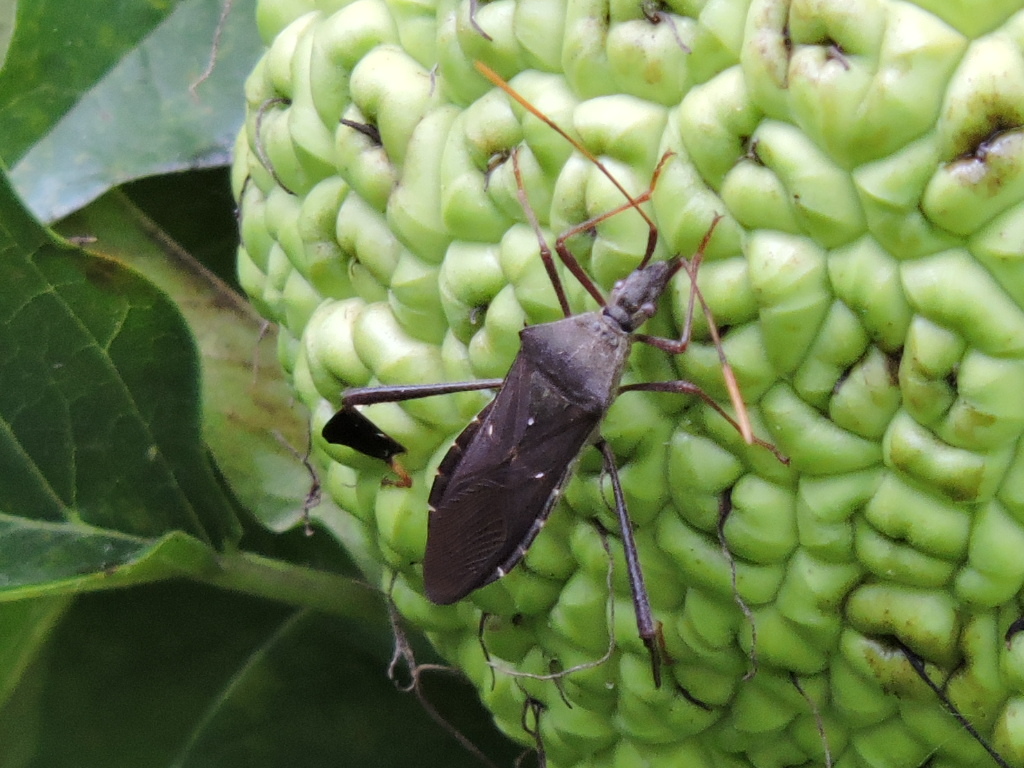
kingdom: Animalia
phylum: Arthropoda
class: Insecta
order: Hemiptera
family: Coreidae
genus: Leptoglossus
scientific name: Leptoglossus oppositus
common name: Northern leaf-footed bug
